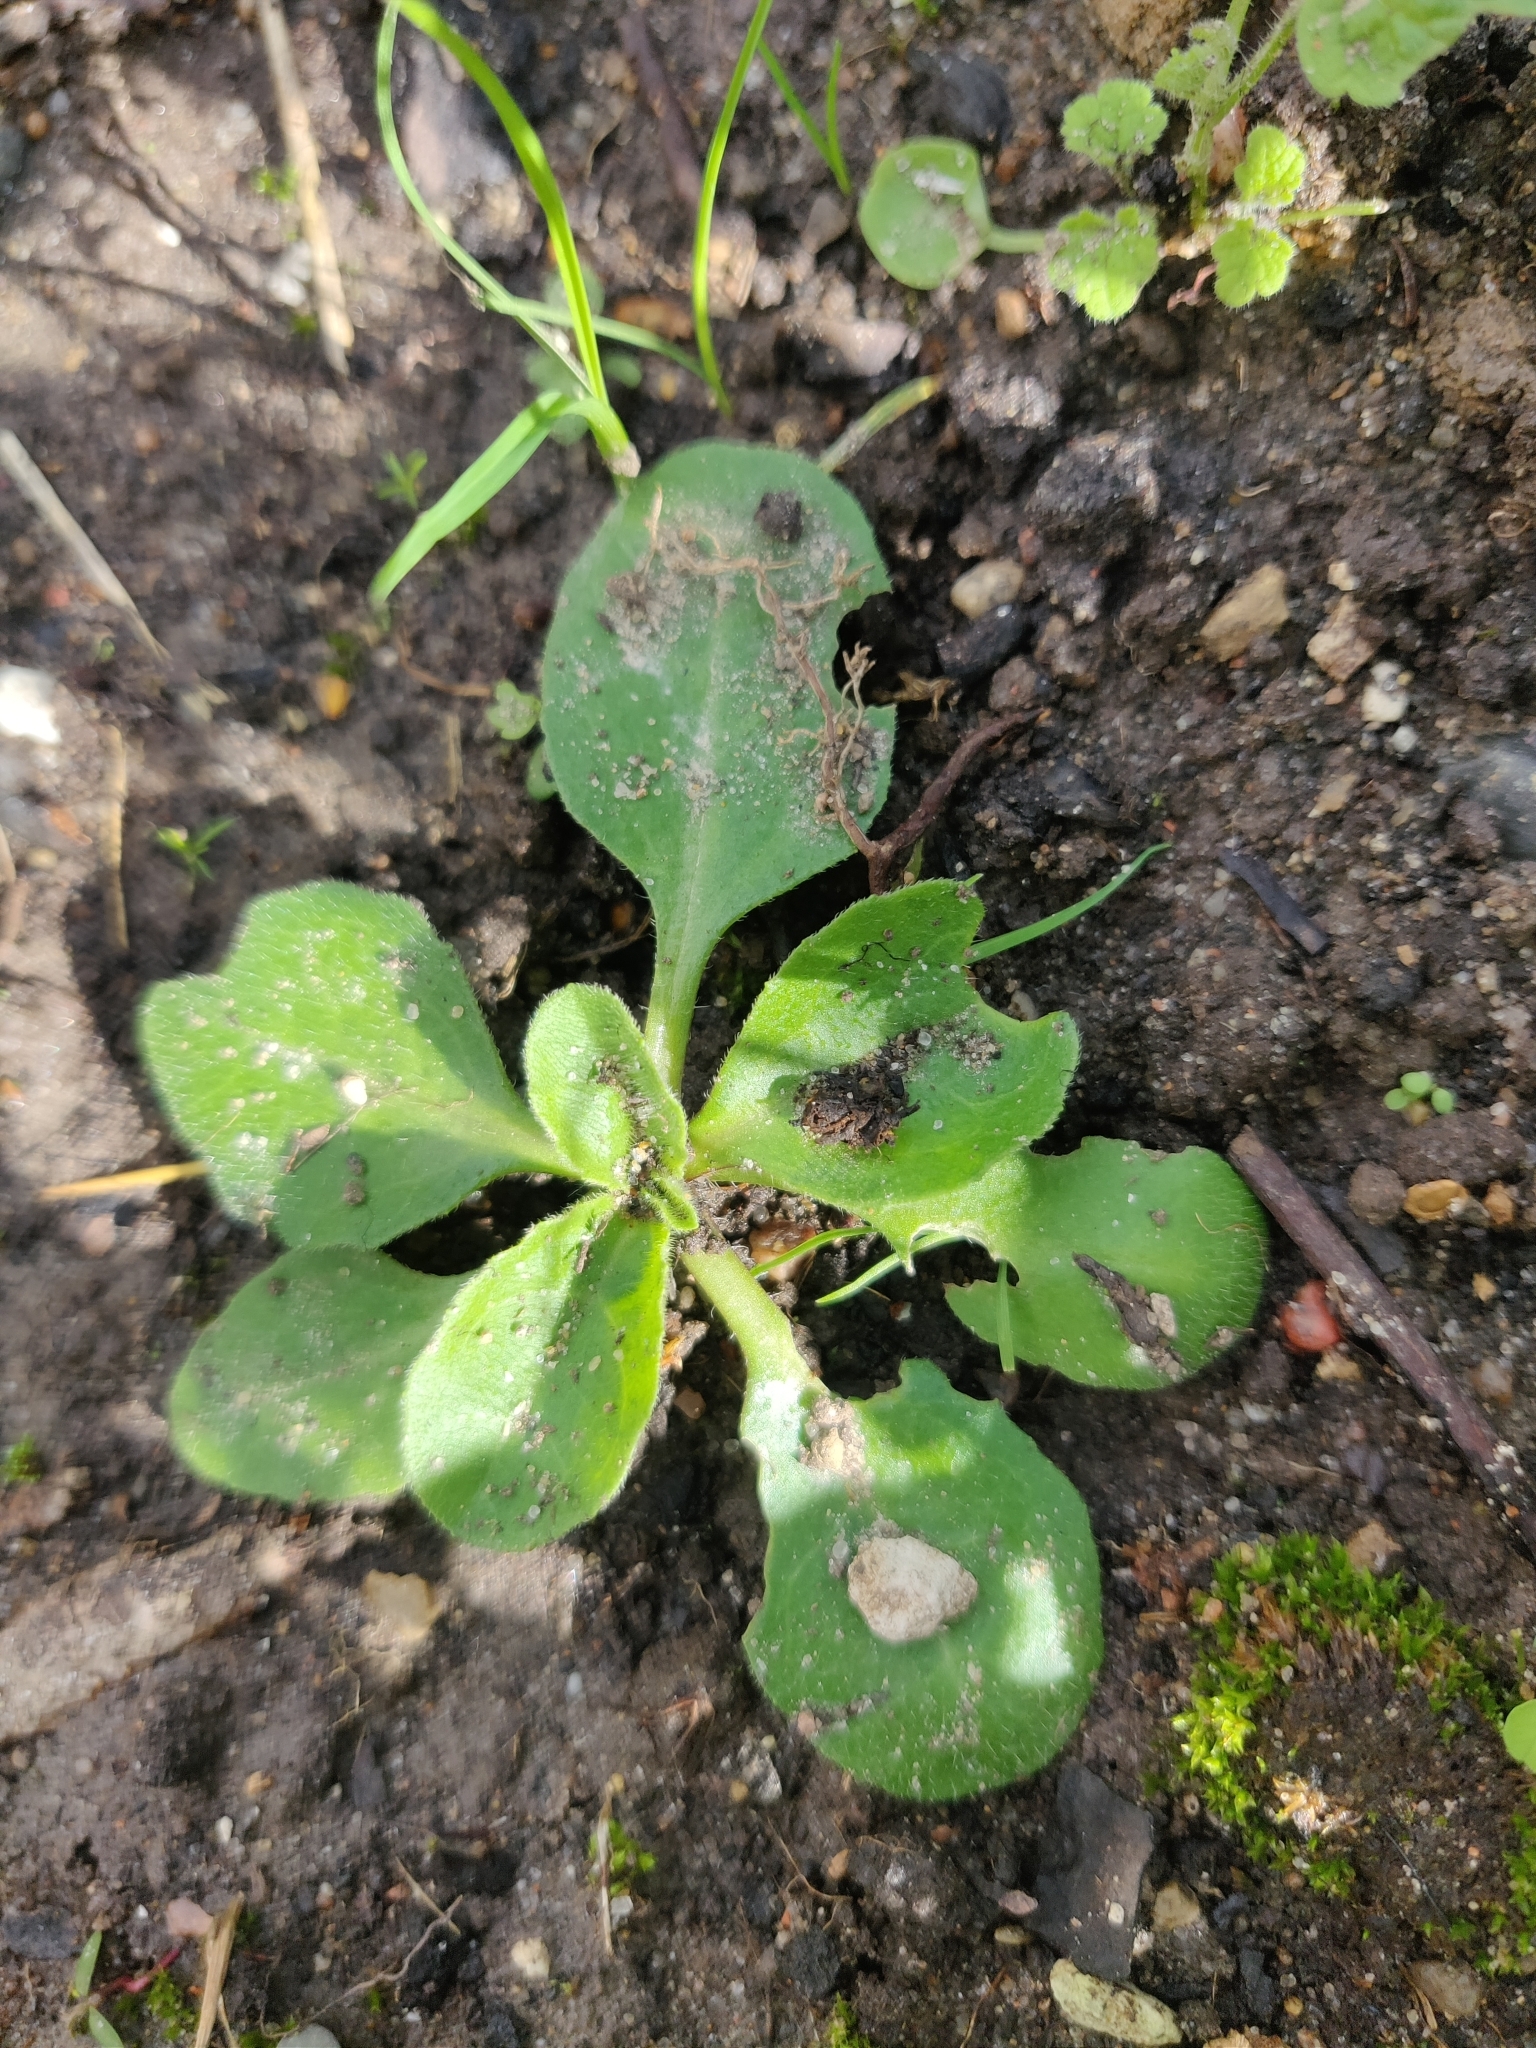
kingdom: Plantae
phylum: Tracheophyta
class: Magnoliopsida
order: Asterales
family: Asteraceae
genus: Bellis
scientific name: Bellis perennis
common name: Lawndaisy
